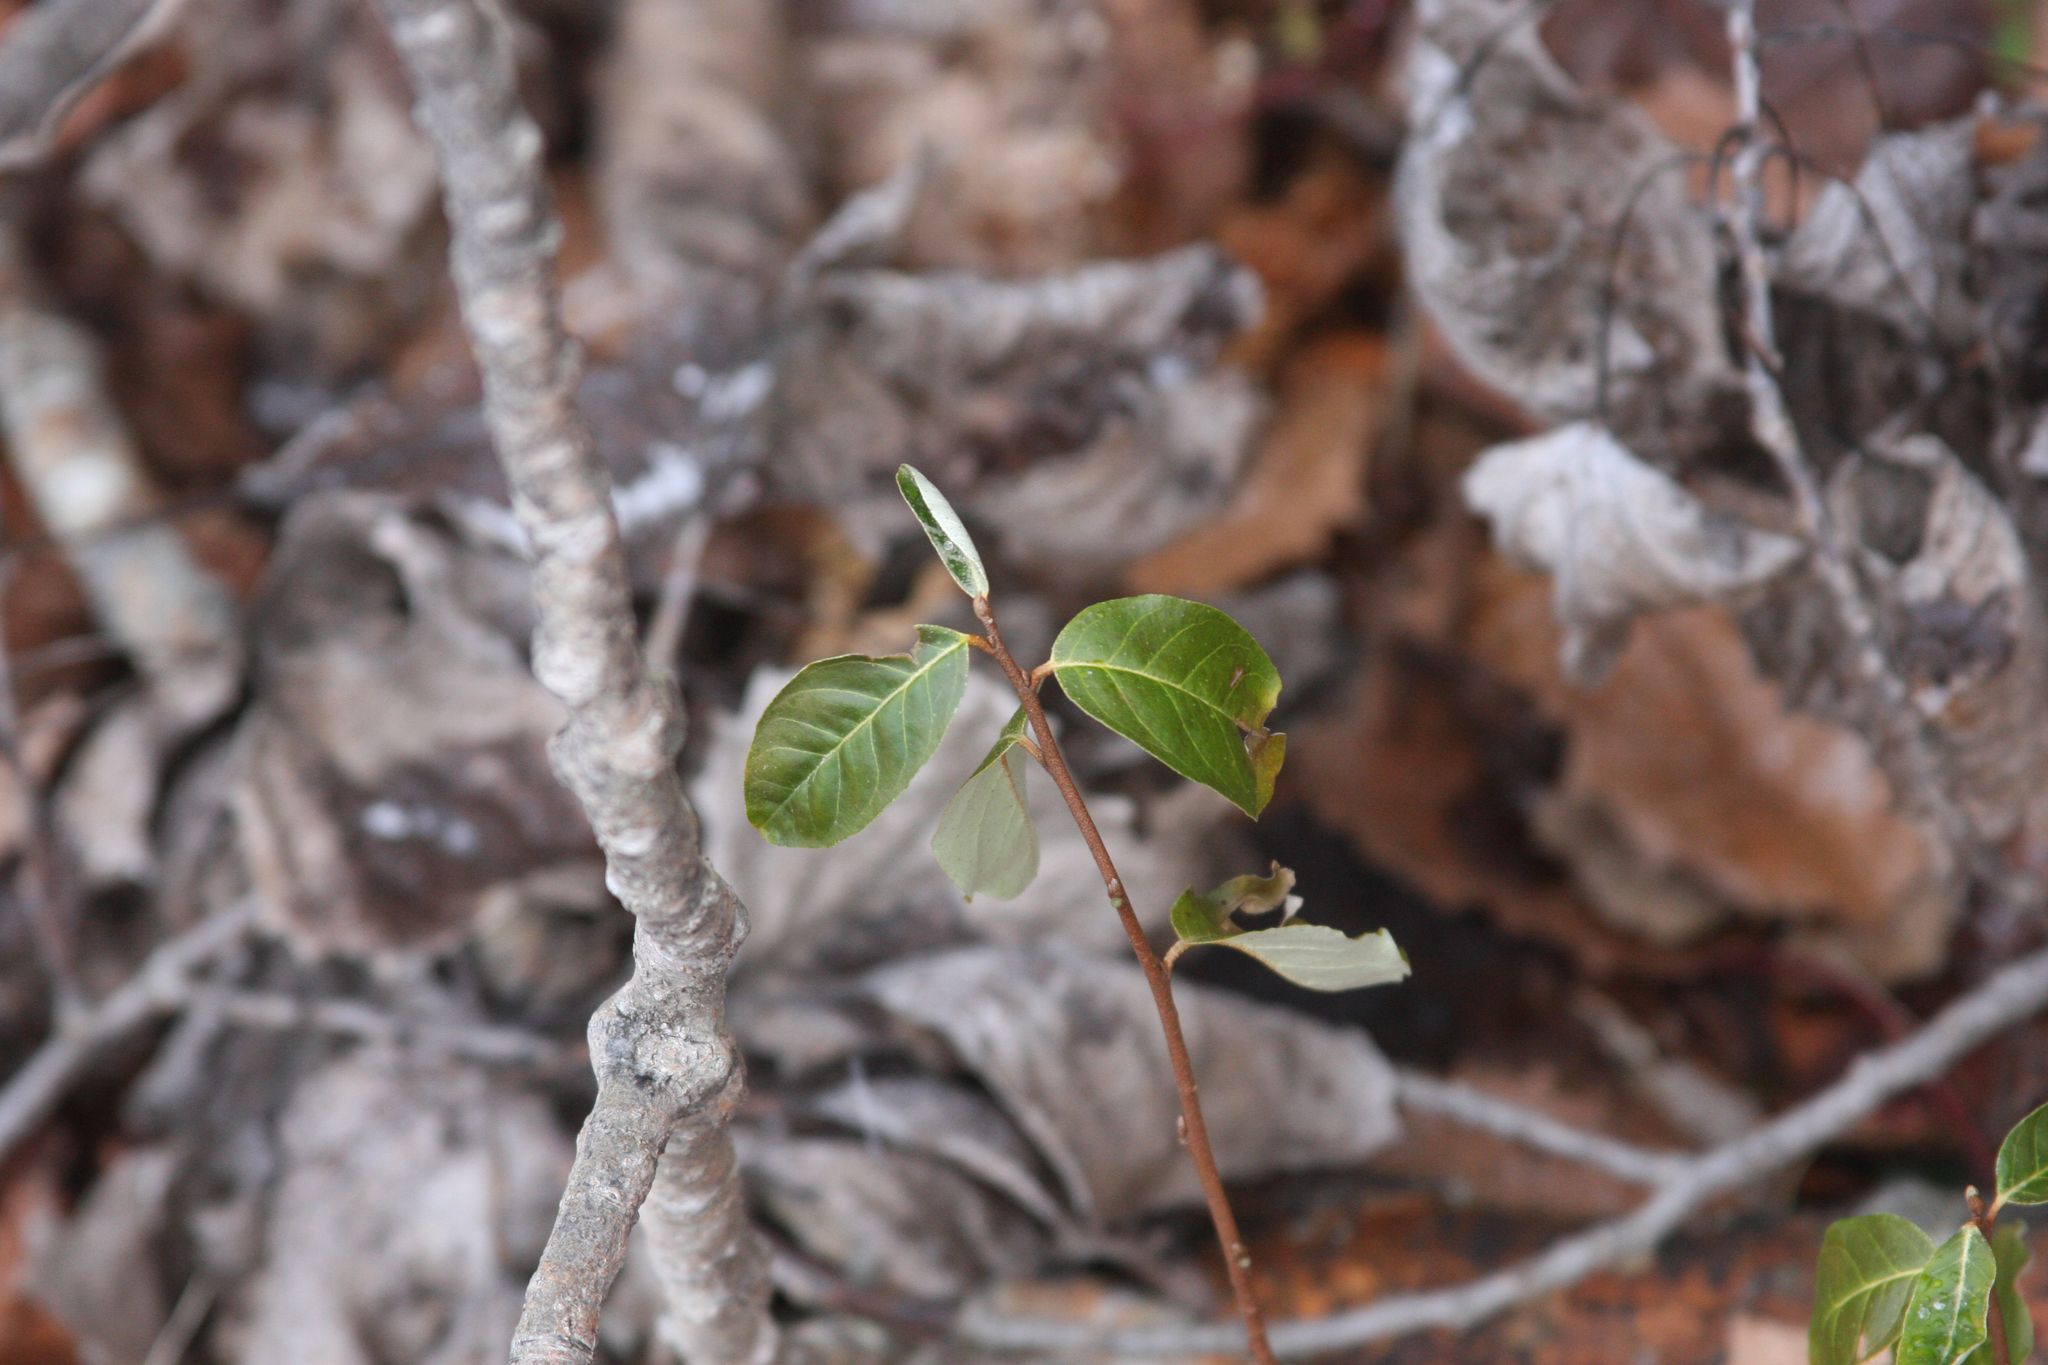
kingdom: Plantae
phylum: Tracheophyta
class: Magnoliopsida
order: Rosales
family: Elaeagnaceae
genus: Elaeagnus
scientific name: Elaeagnus umbellata
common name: Autumn olive
